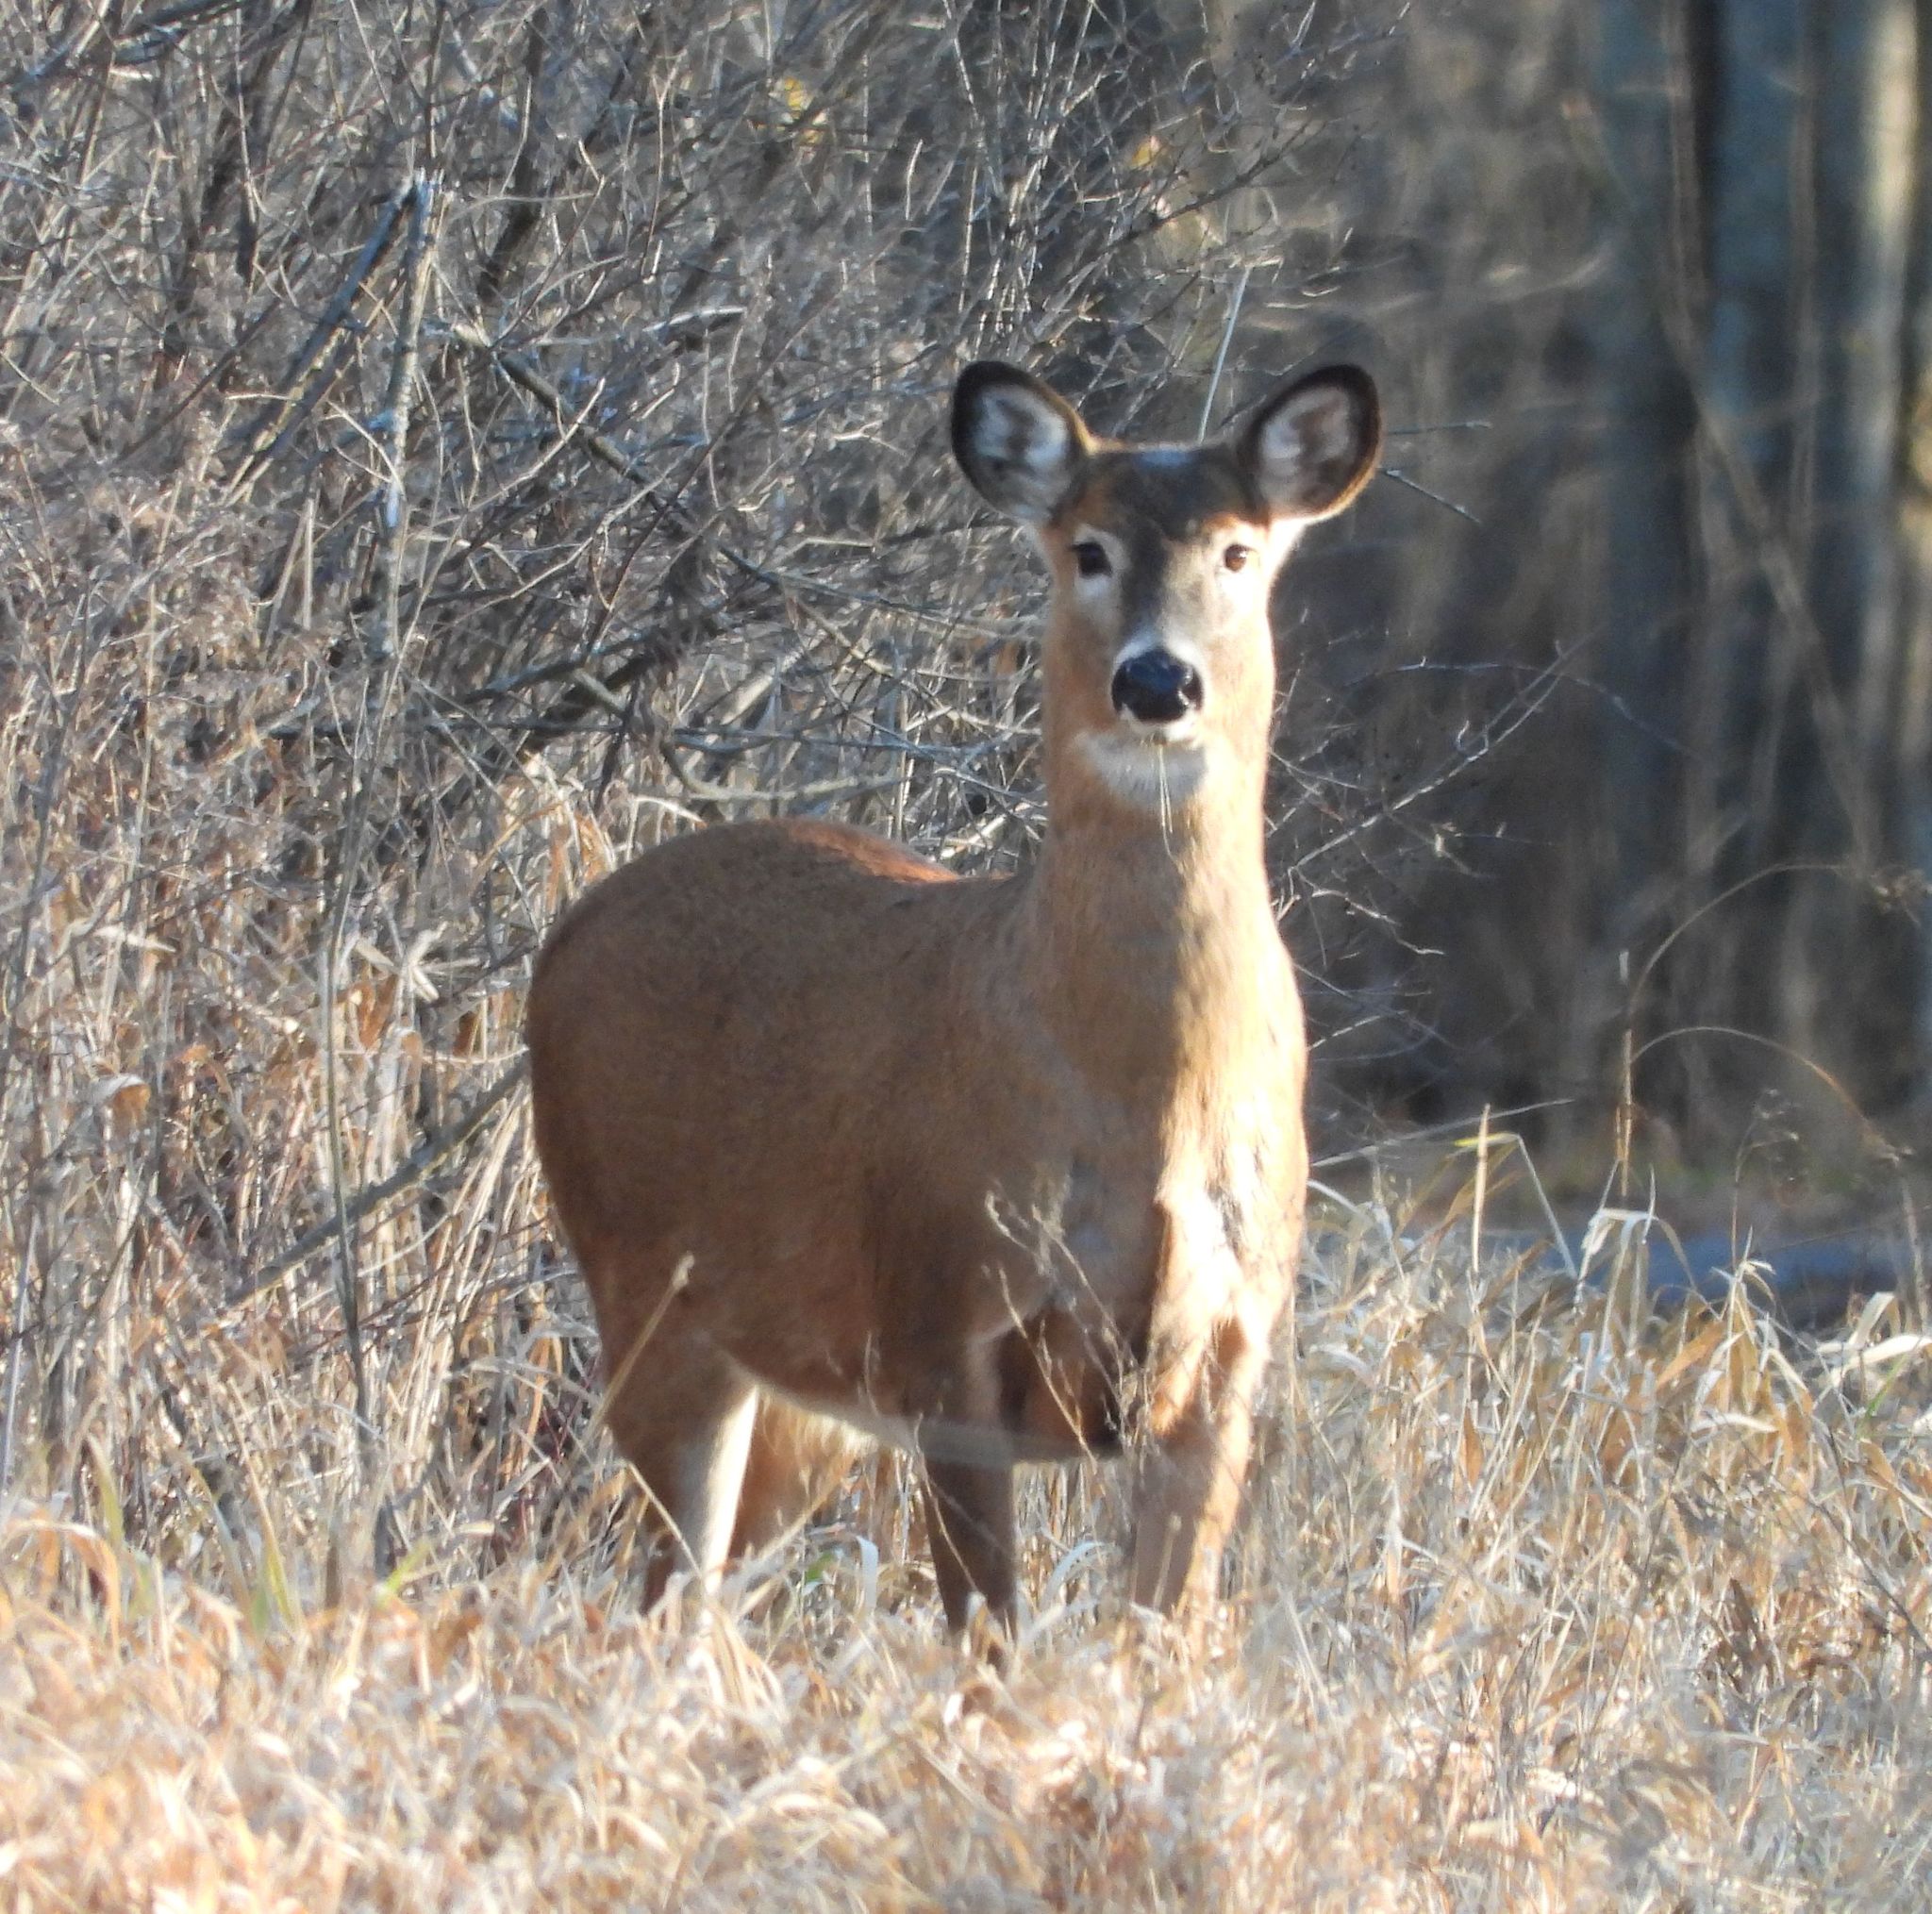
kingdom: Animalia
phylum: Chordata
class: Mammalia
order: Artiodactyla
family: Cervidae
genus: Odocoileus
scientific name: Odocoileus virginianus
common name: White-tailed deer
